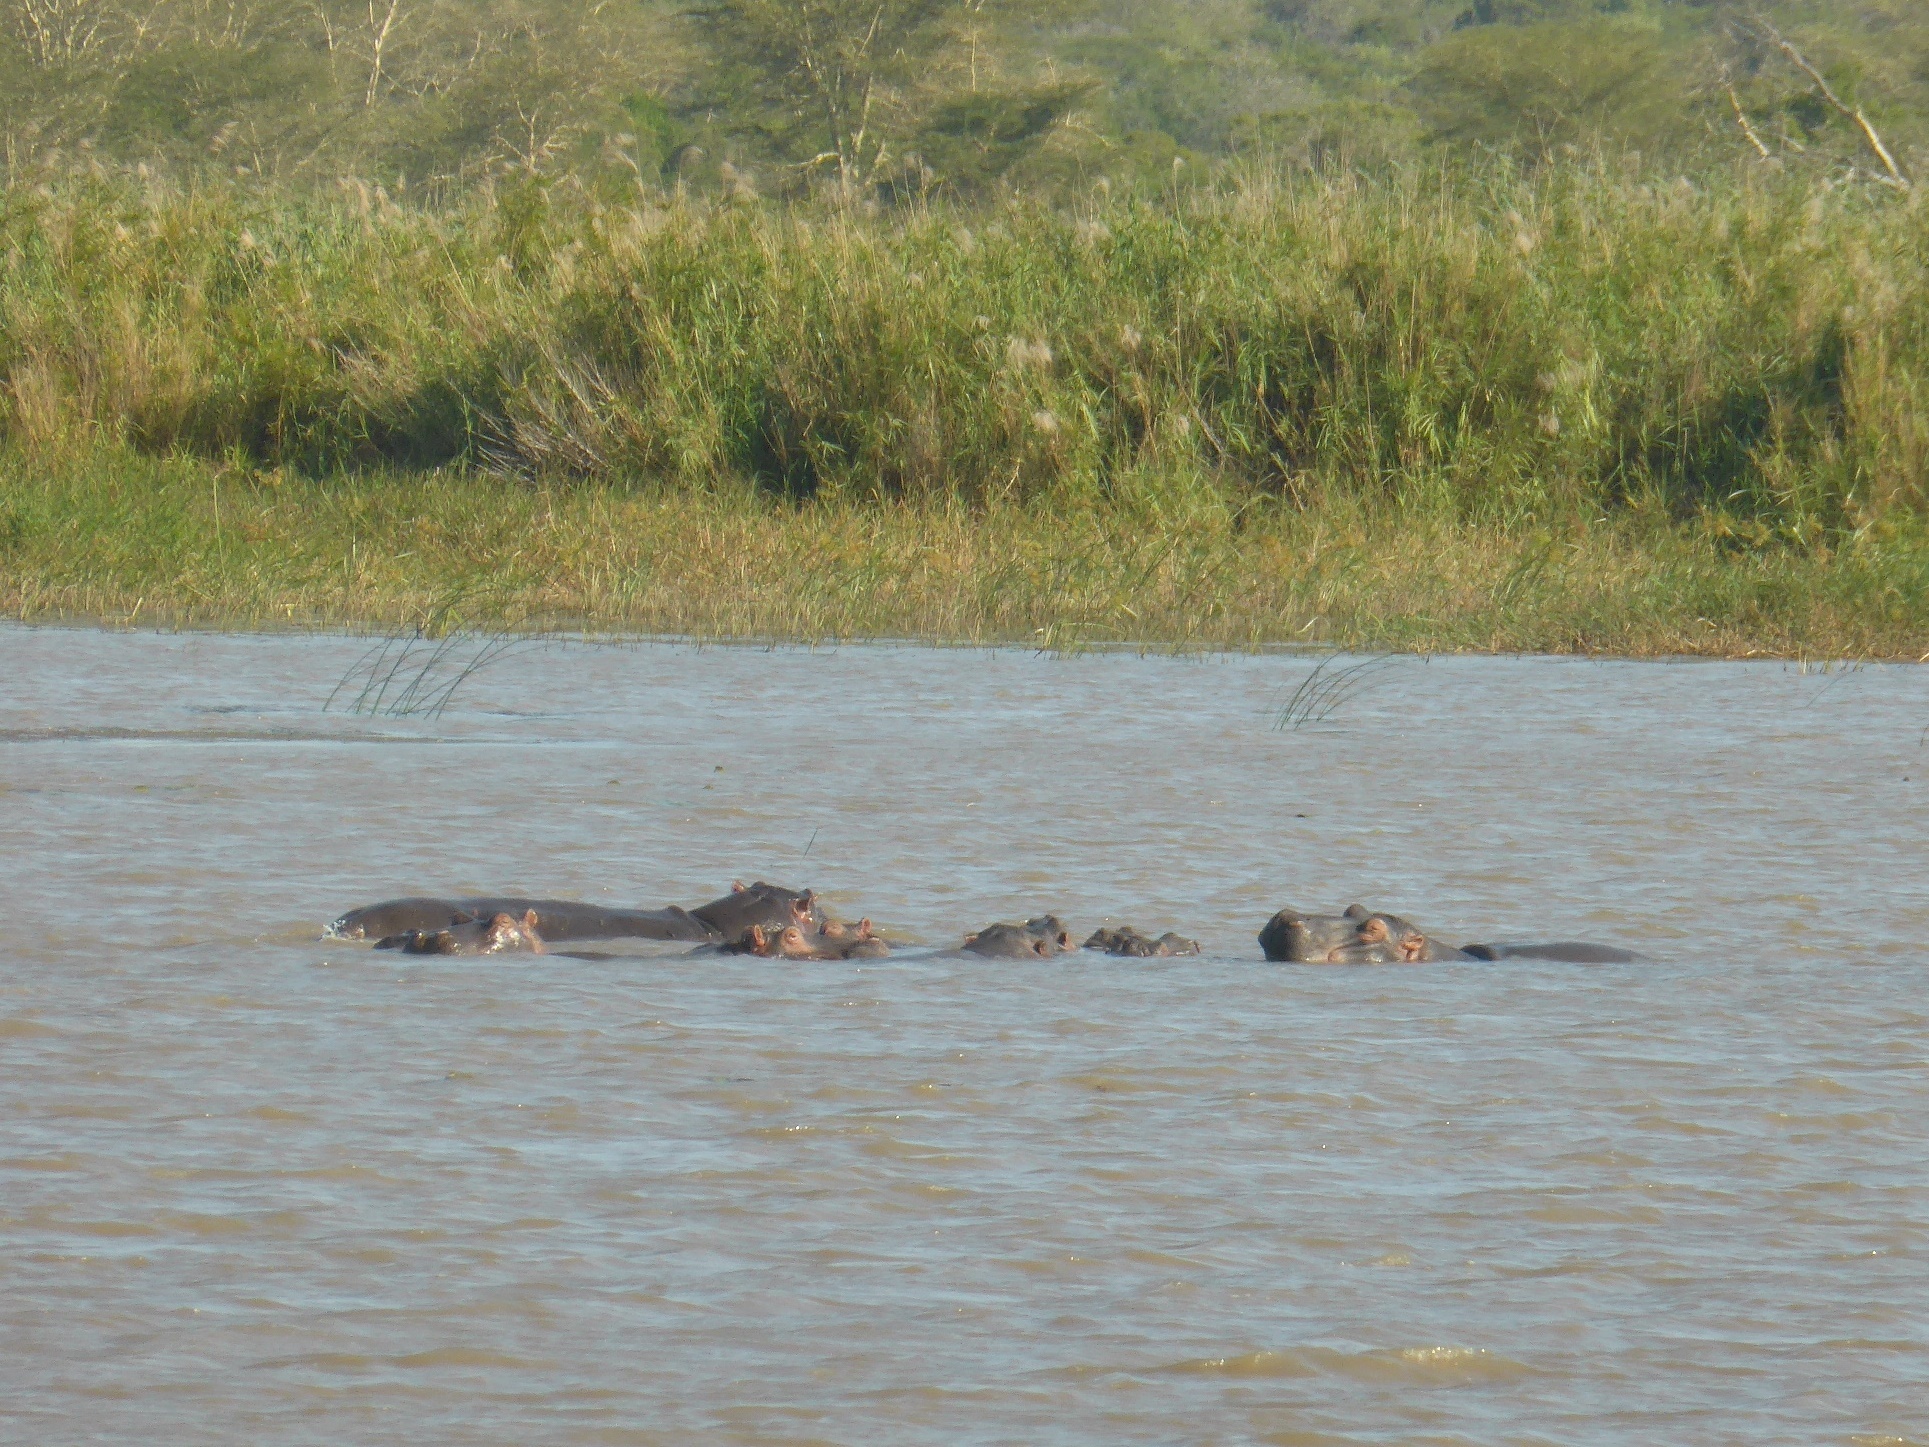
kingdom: Animalia
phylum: Chordata
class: Mammalia
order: Artiodactyla
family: Hippopotamidae
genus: Hippopotamus
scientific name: Hippopotamus amphibius
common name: Common hippopotamus
